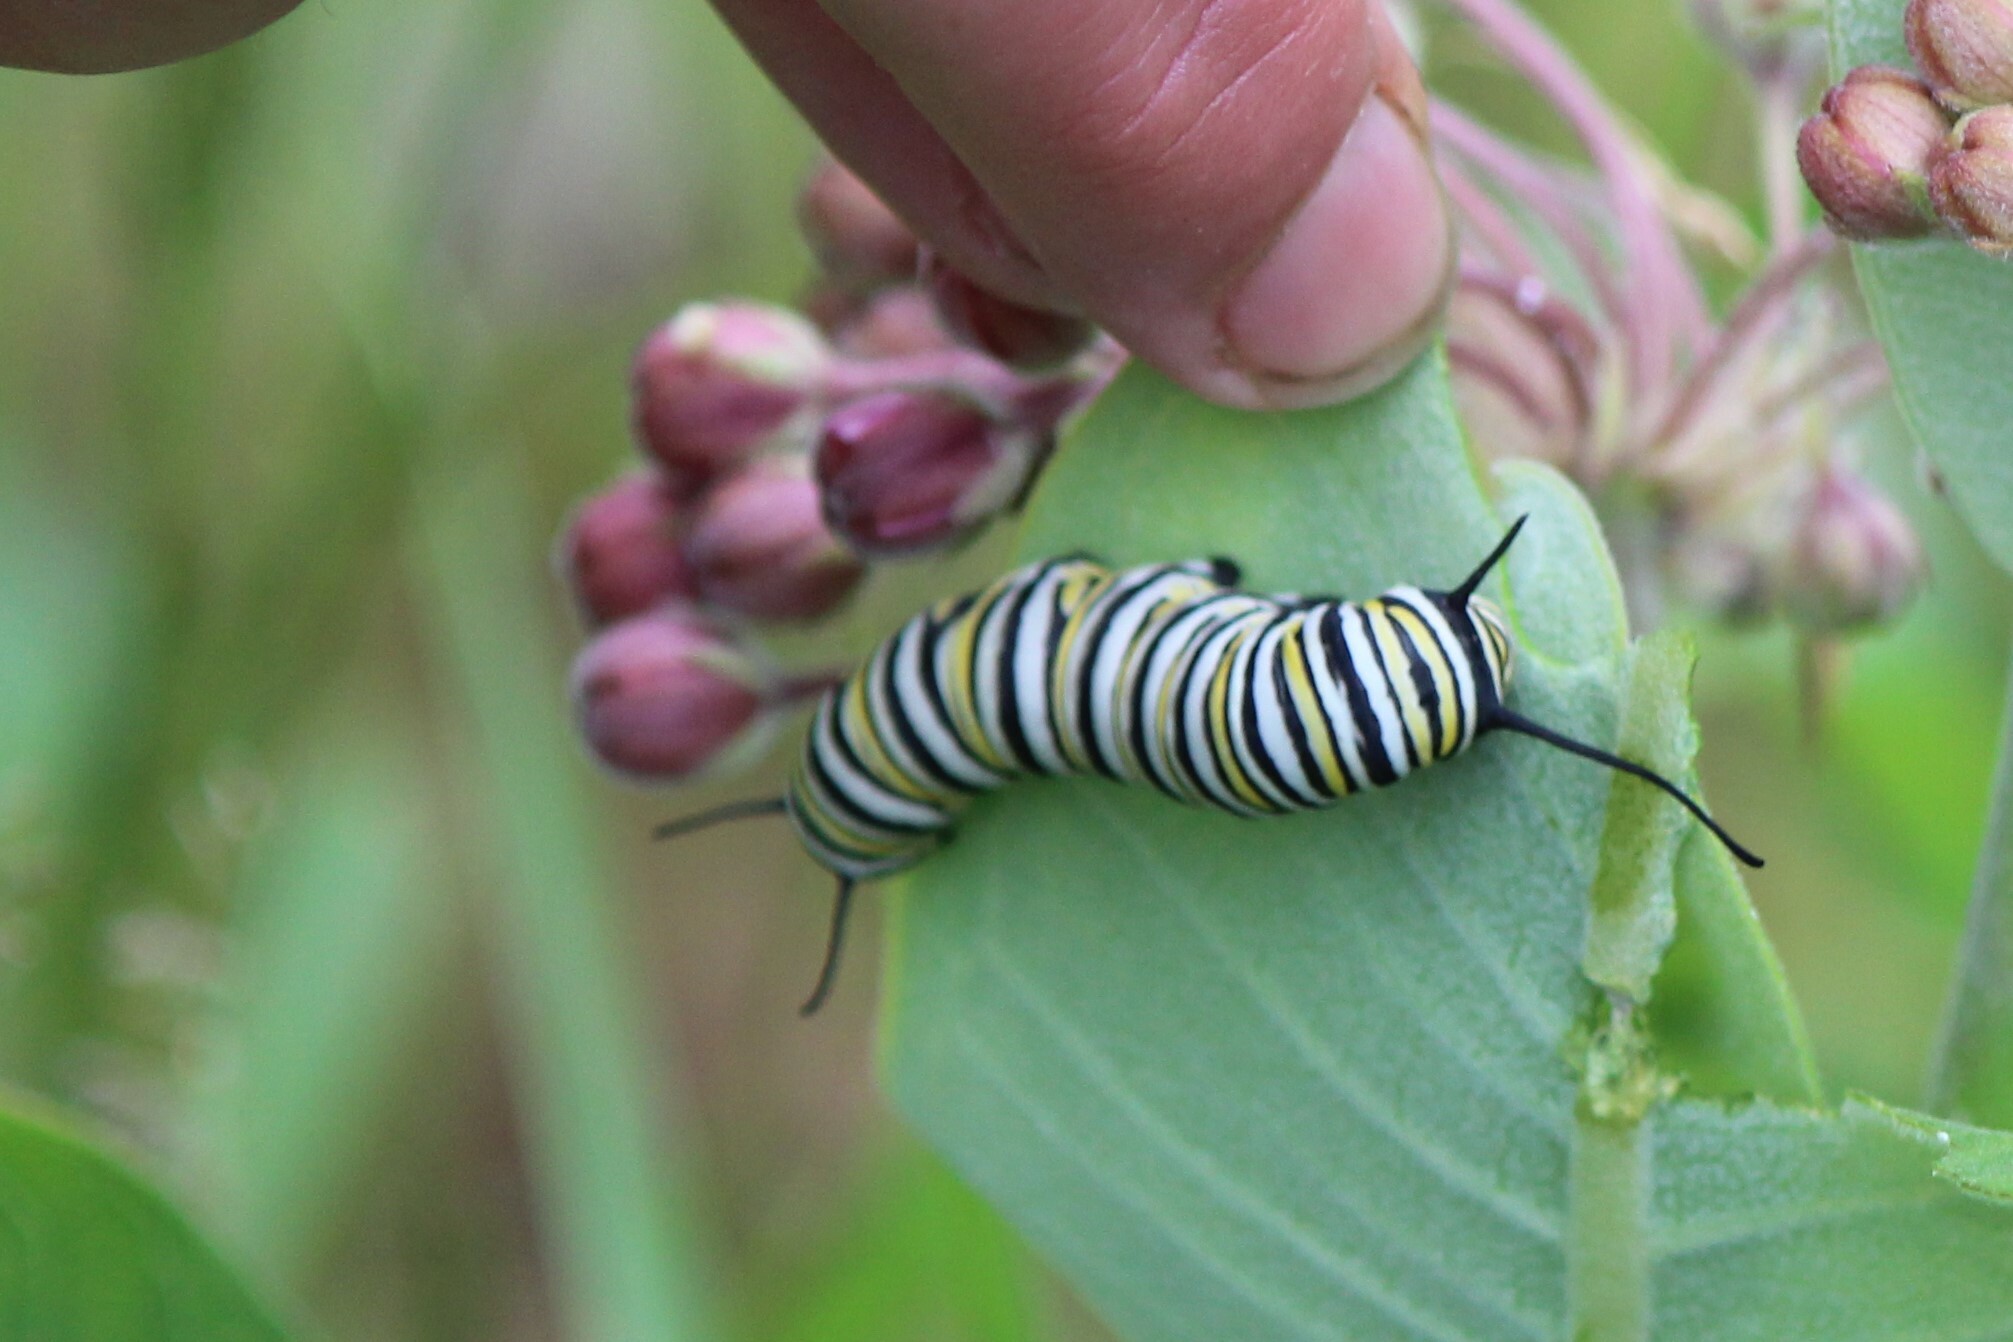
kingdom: Animalia
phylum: Arthropoda
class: Insecta
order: Lepidoptera
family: Nymphalidae
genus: Danaus
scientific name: Danaus plexippus
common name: Monarch
